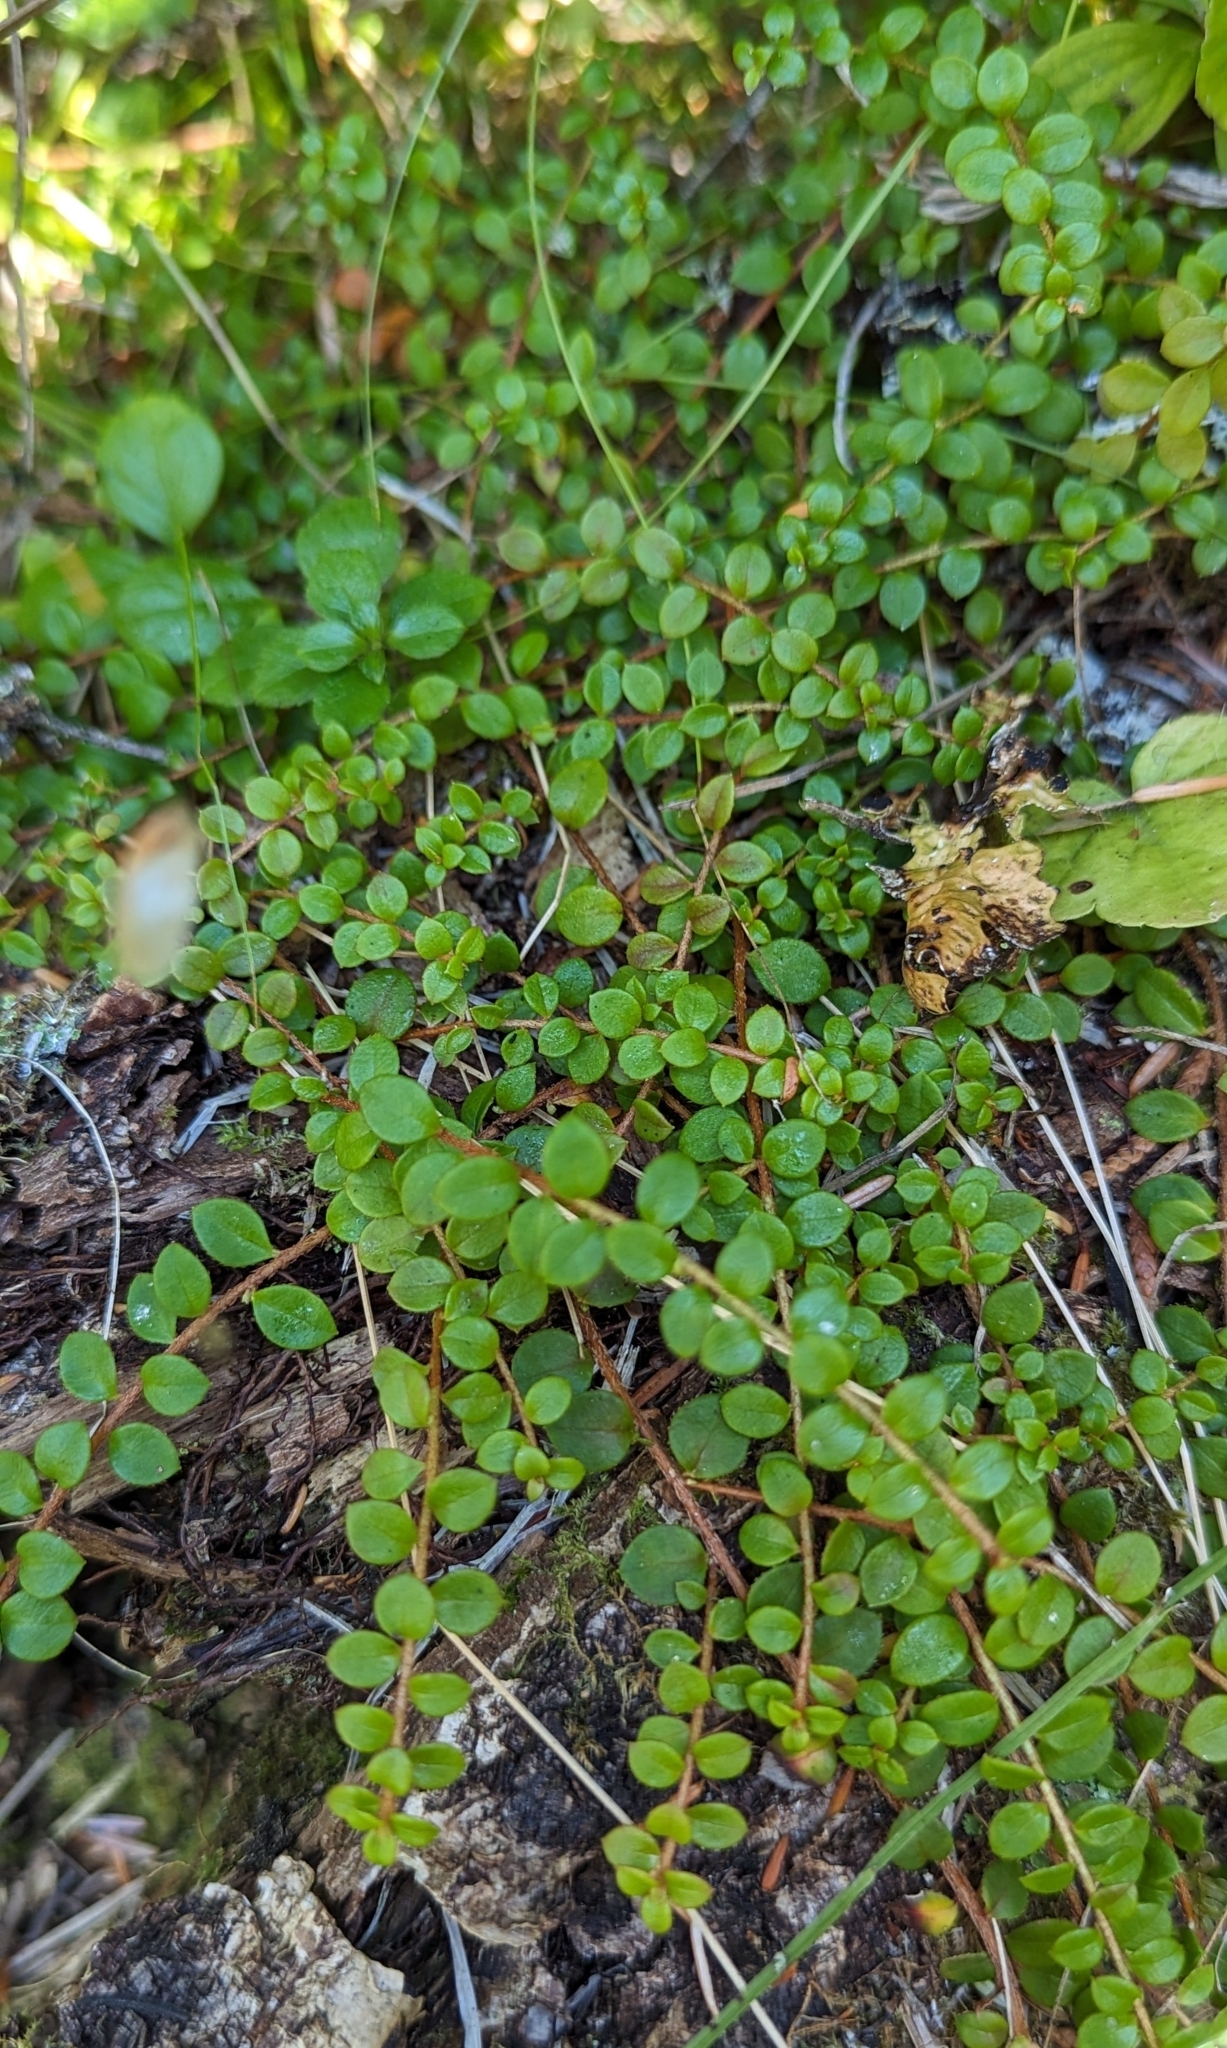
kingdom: Plantae
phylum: Tracheophyta
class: Magnoliopsida
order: Ericales
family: Ericaceae
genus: Gaultheria
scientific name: Gaultheria hispidula
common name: Cancer wintergreen
